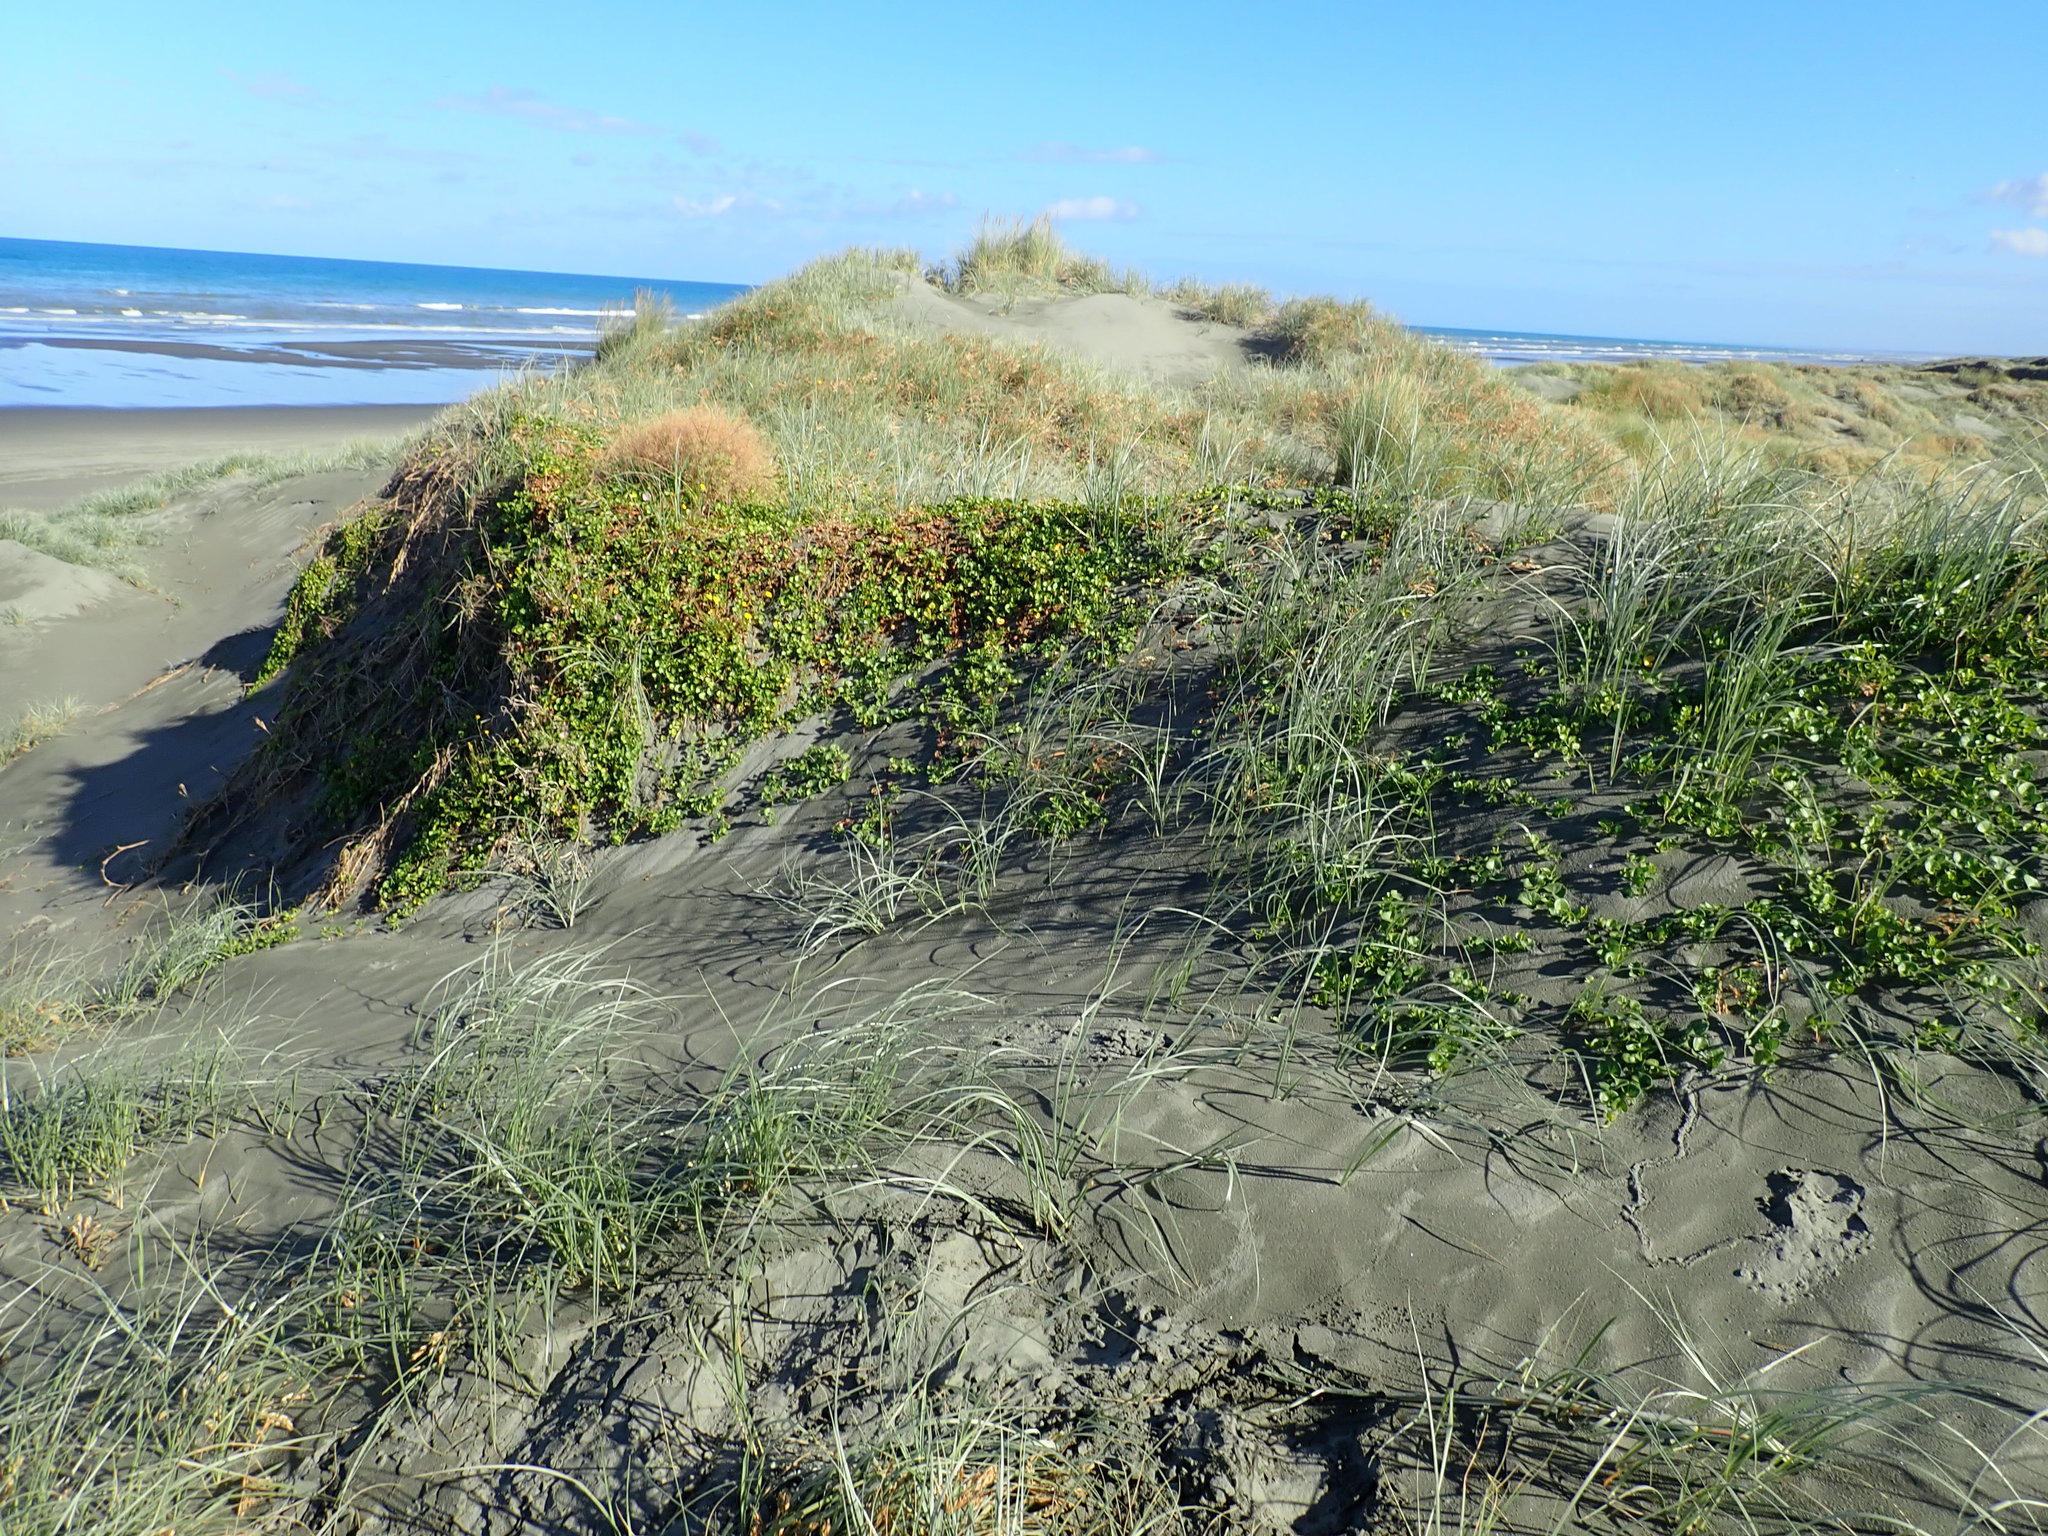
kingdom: Plantae
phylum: Tracheophyta
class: Magnoliopsida
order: Solanales
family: Convolvulaceae
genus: Calystegia
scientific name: Calystegia soldanella
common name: Sea bindweed
